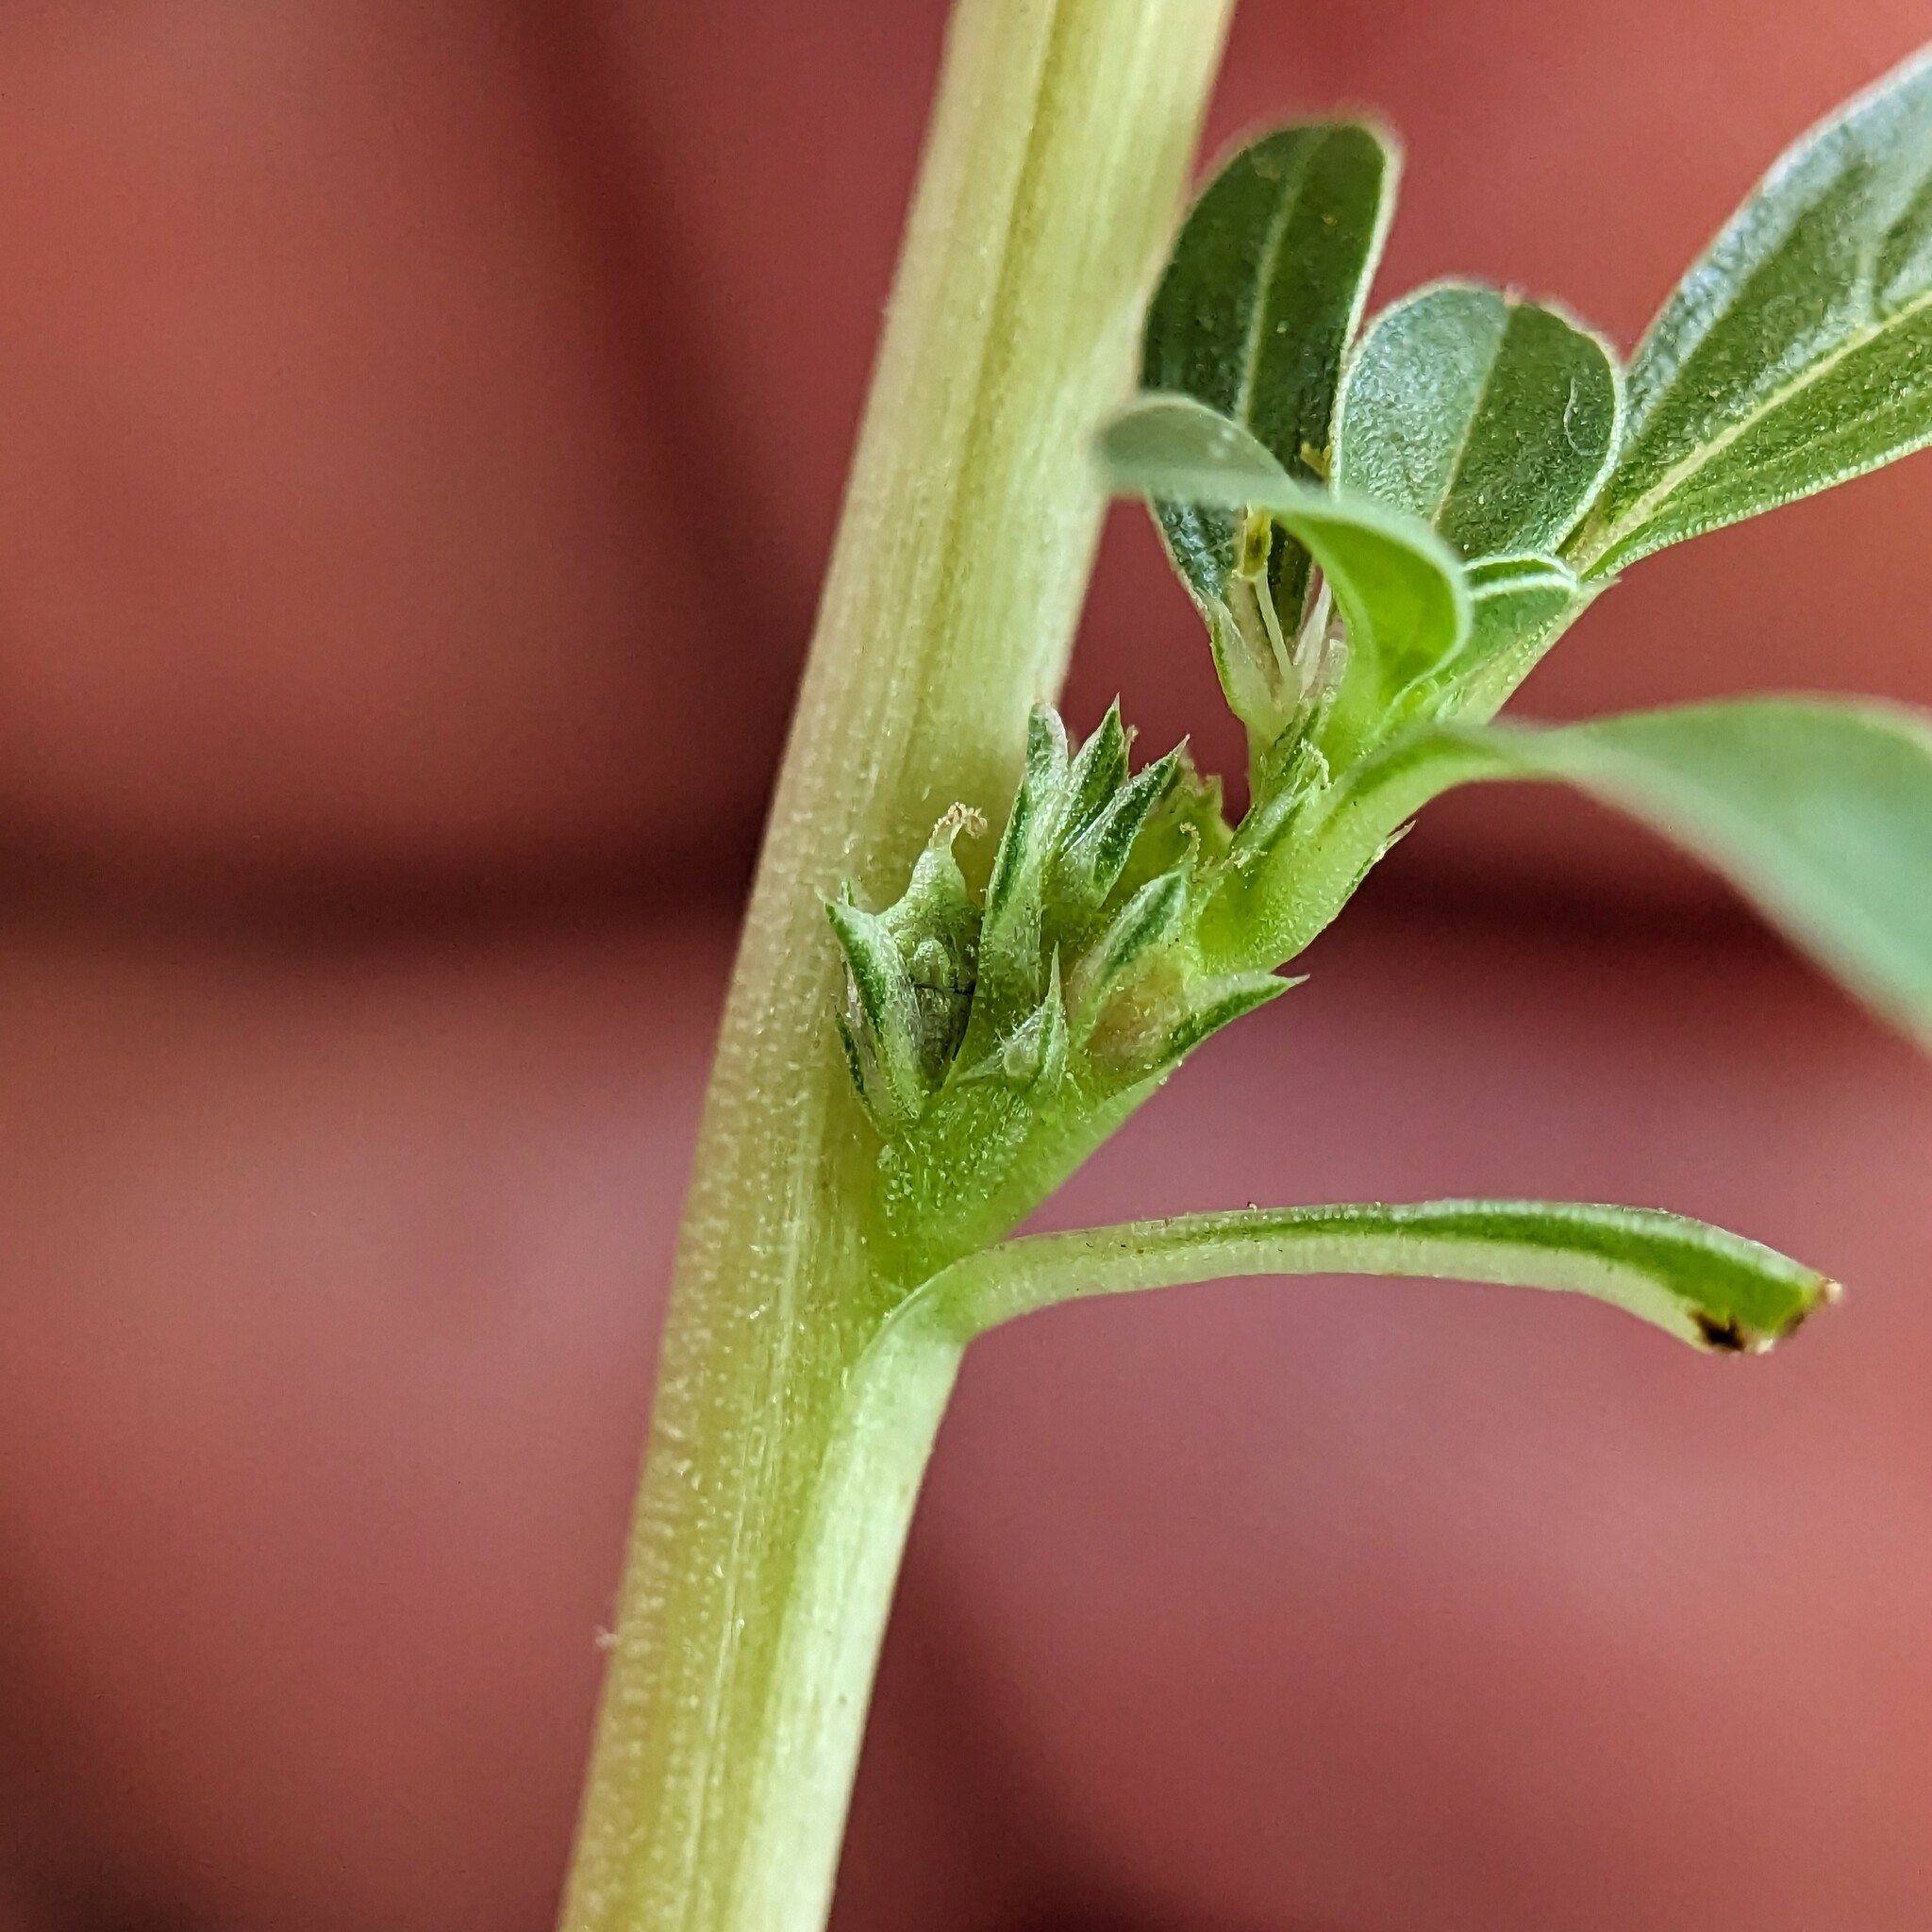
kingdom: Plantae
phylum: Tracheophyta
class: Magnoliopsida
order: Caryophyllales
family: Amaranthaceae
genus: Amaranthus
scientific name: Amaranthus blitoides
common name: Prostrate pigweed
